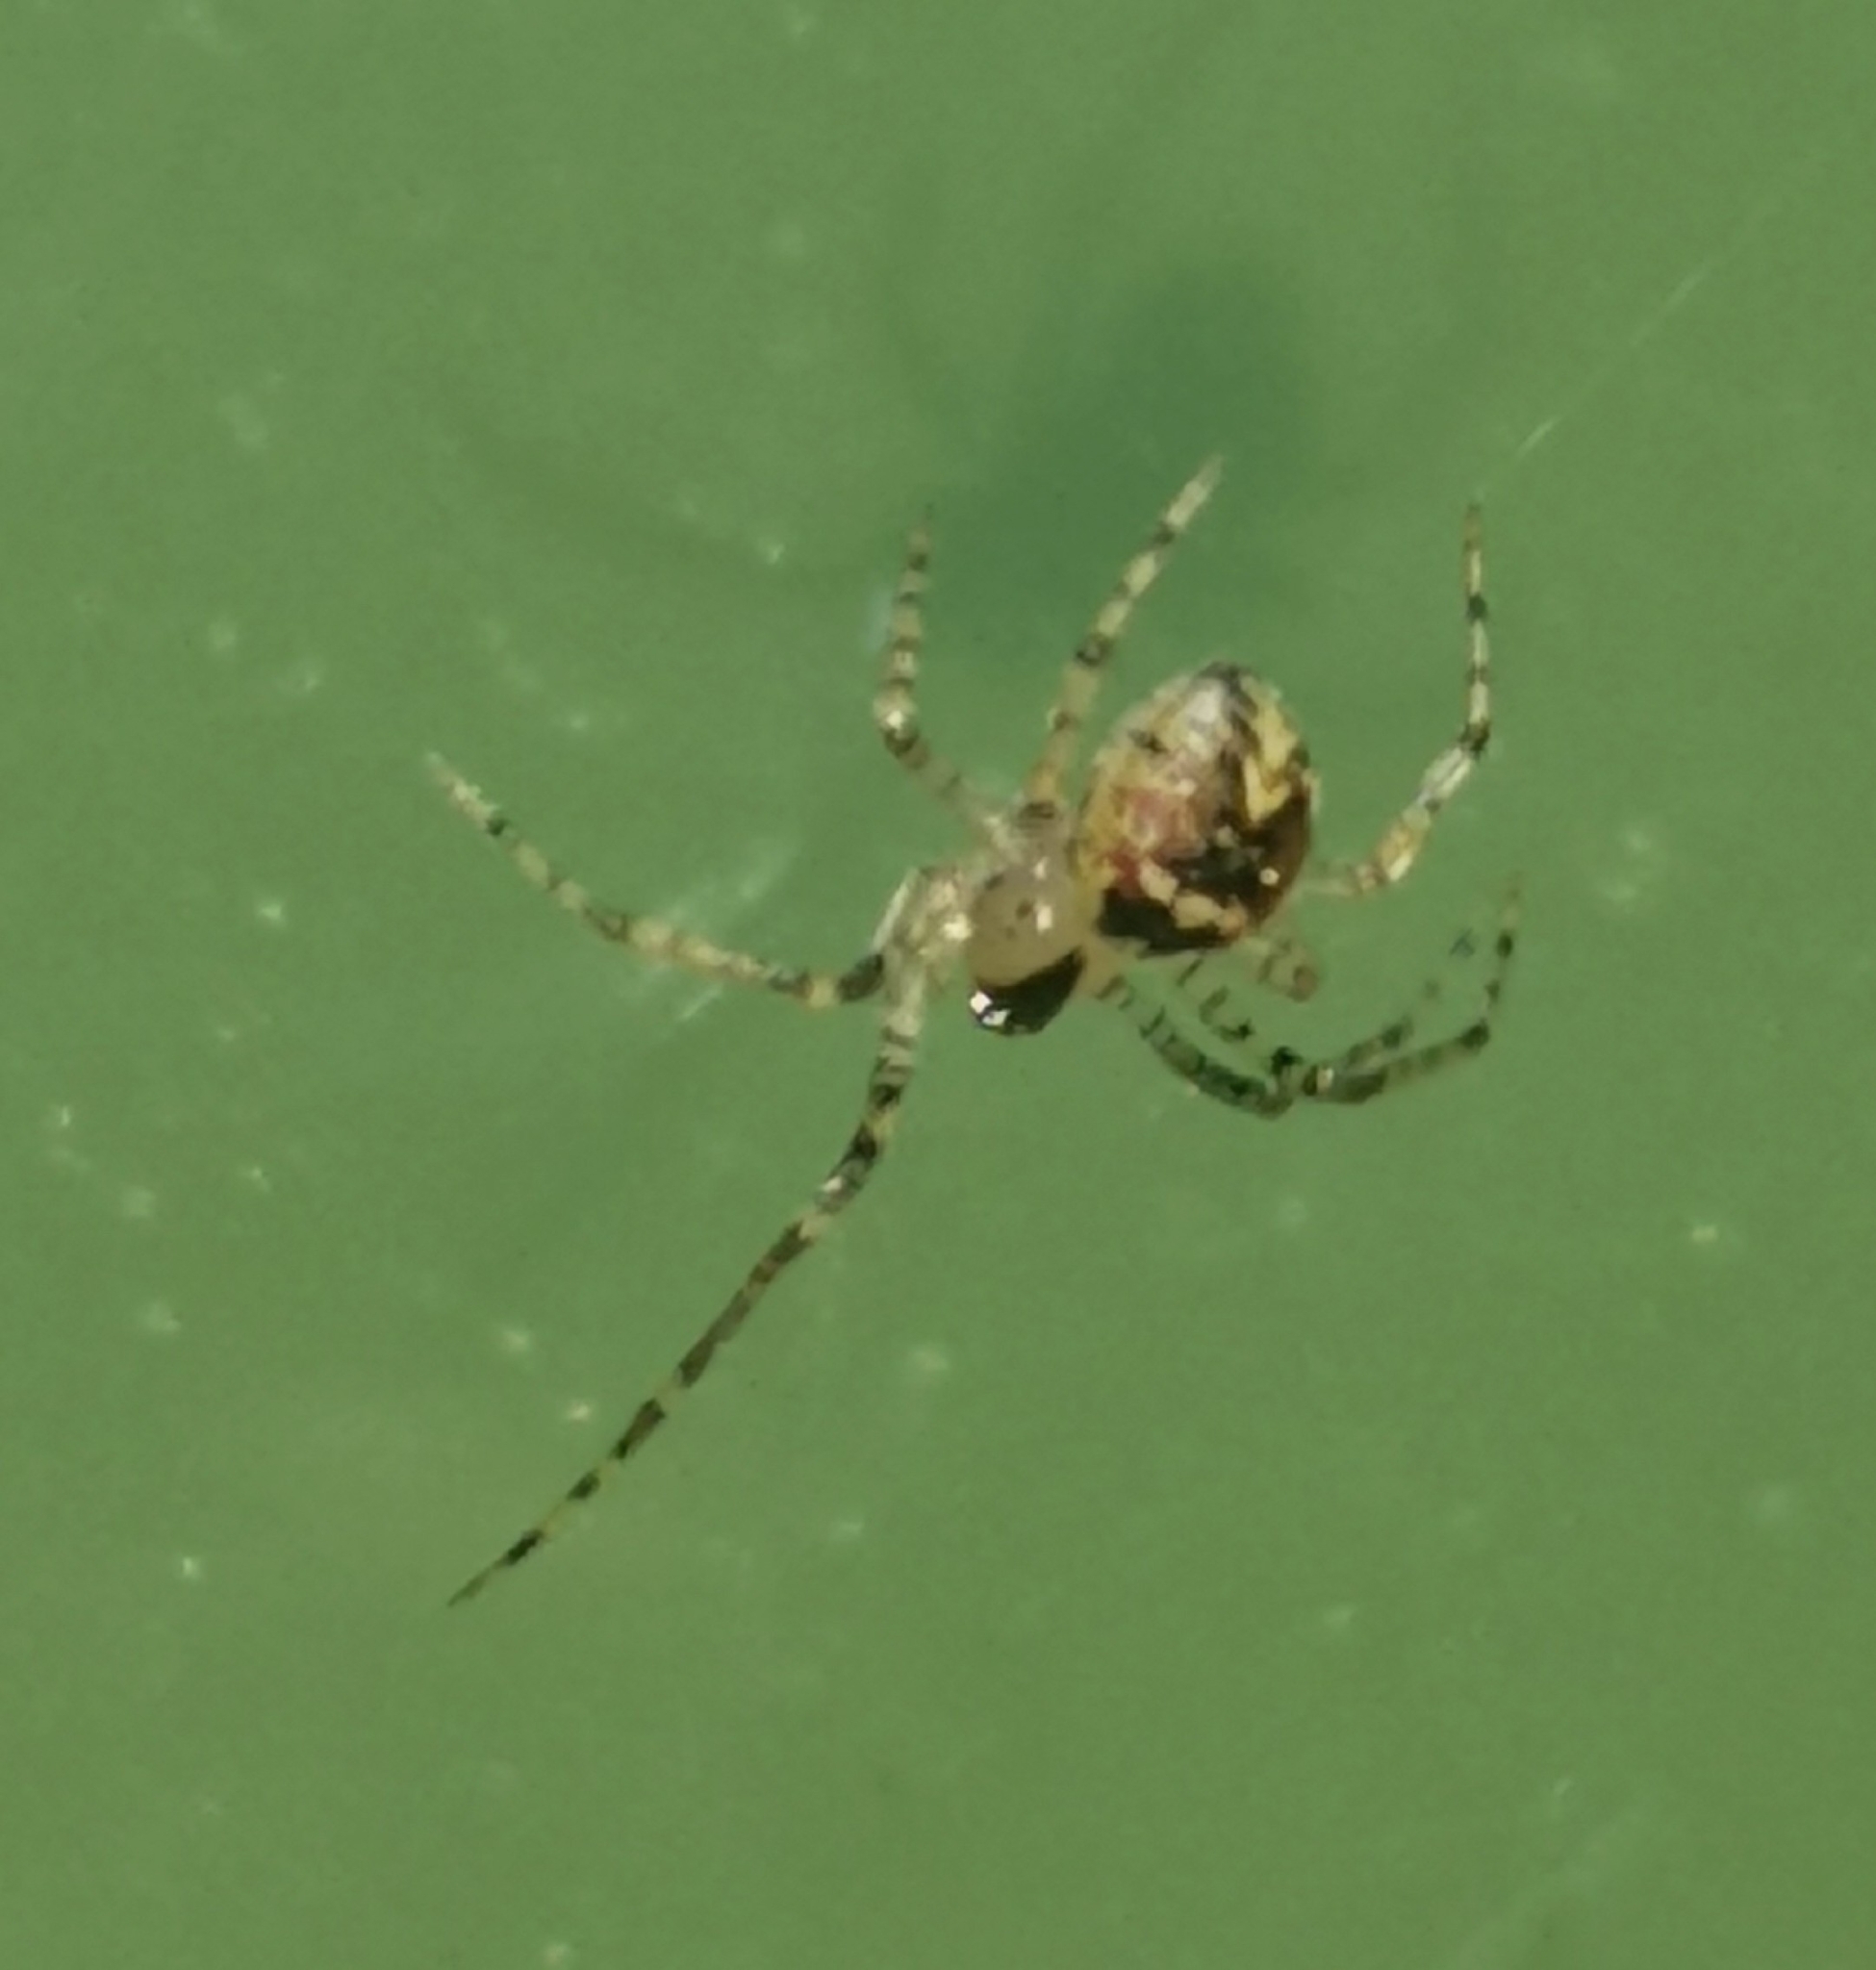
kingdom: Animalia
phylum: Arthropoda
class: Arachnida
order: Araneae
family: Theridiidae
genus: Platnickina
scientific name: Platnickina tincta
